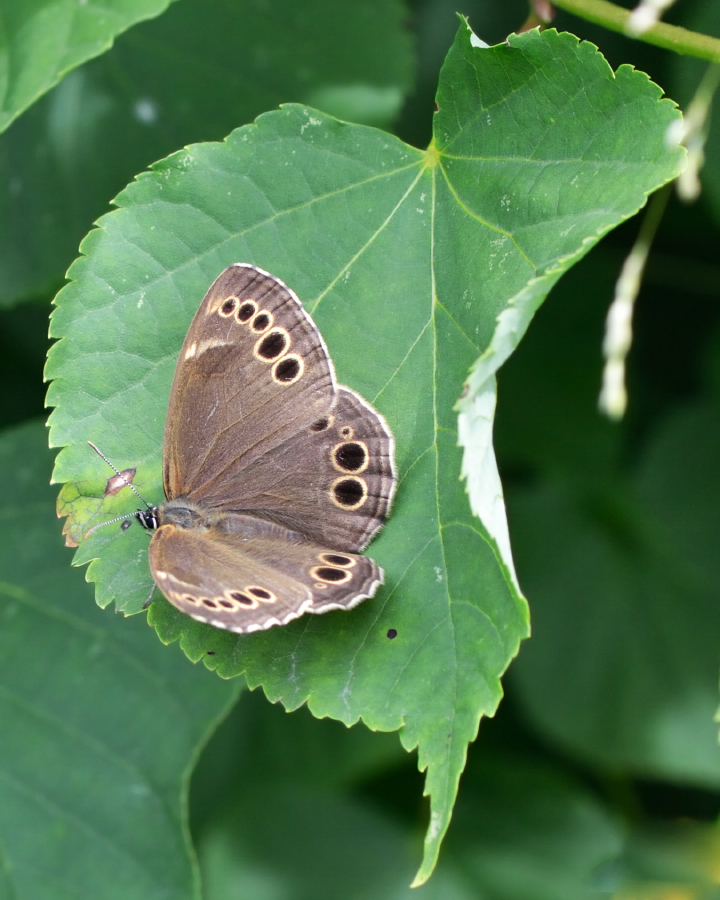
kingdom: Animalia
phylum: Arthropoda
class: Insecta
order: Lepidoptera
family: Nymphalidae
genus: Pararge
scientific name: Pararge Lopinga achine
